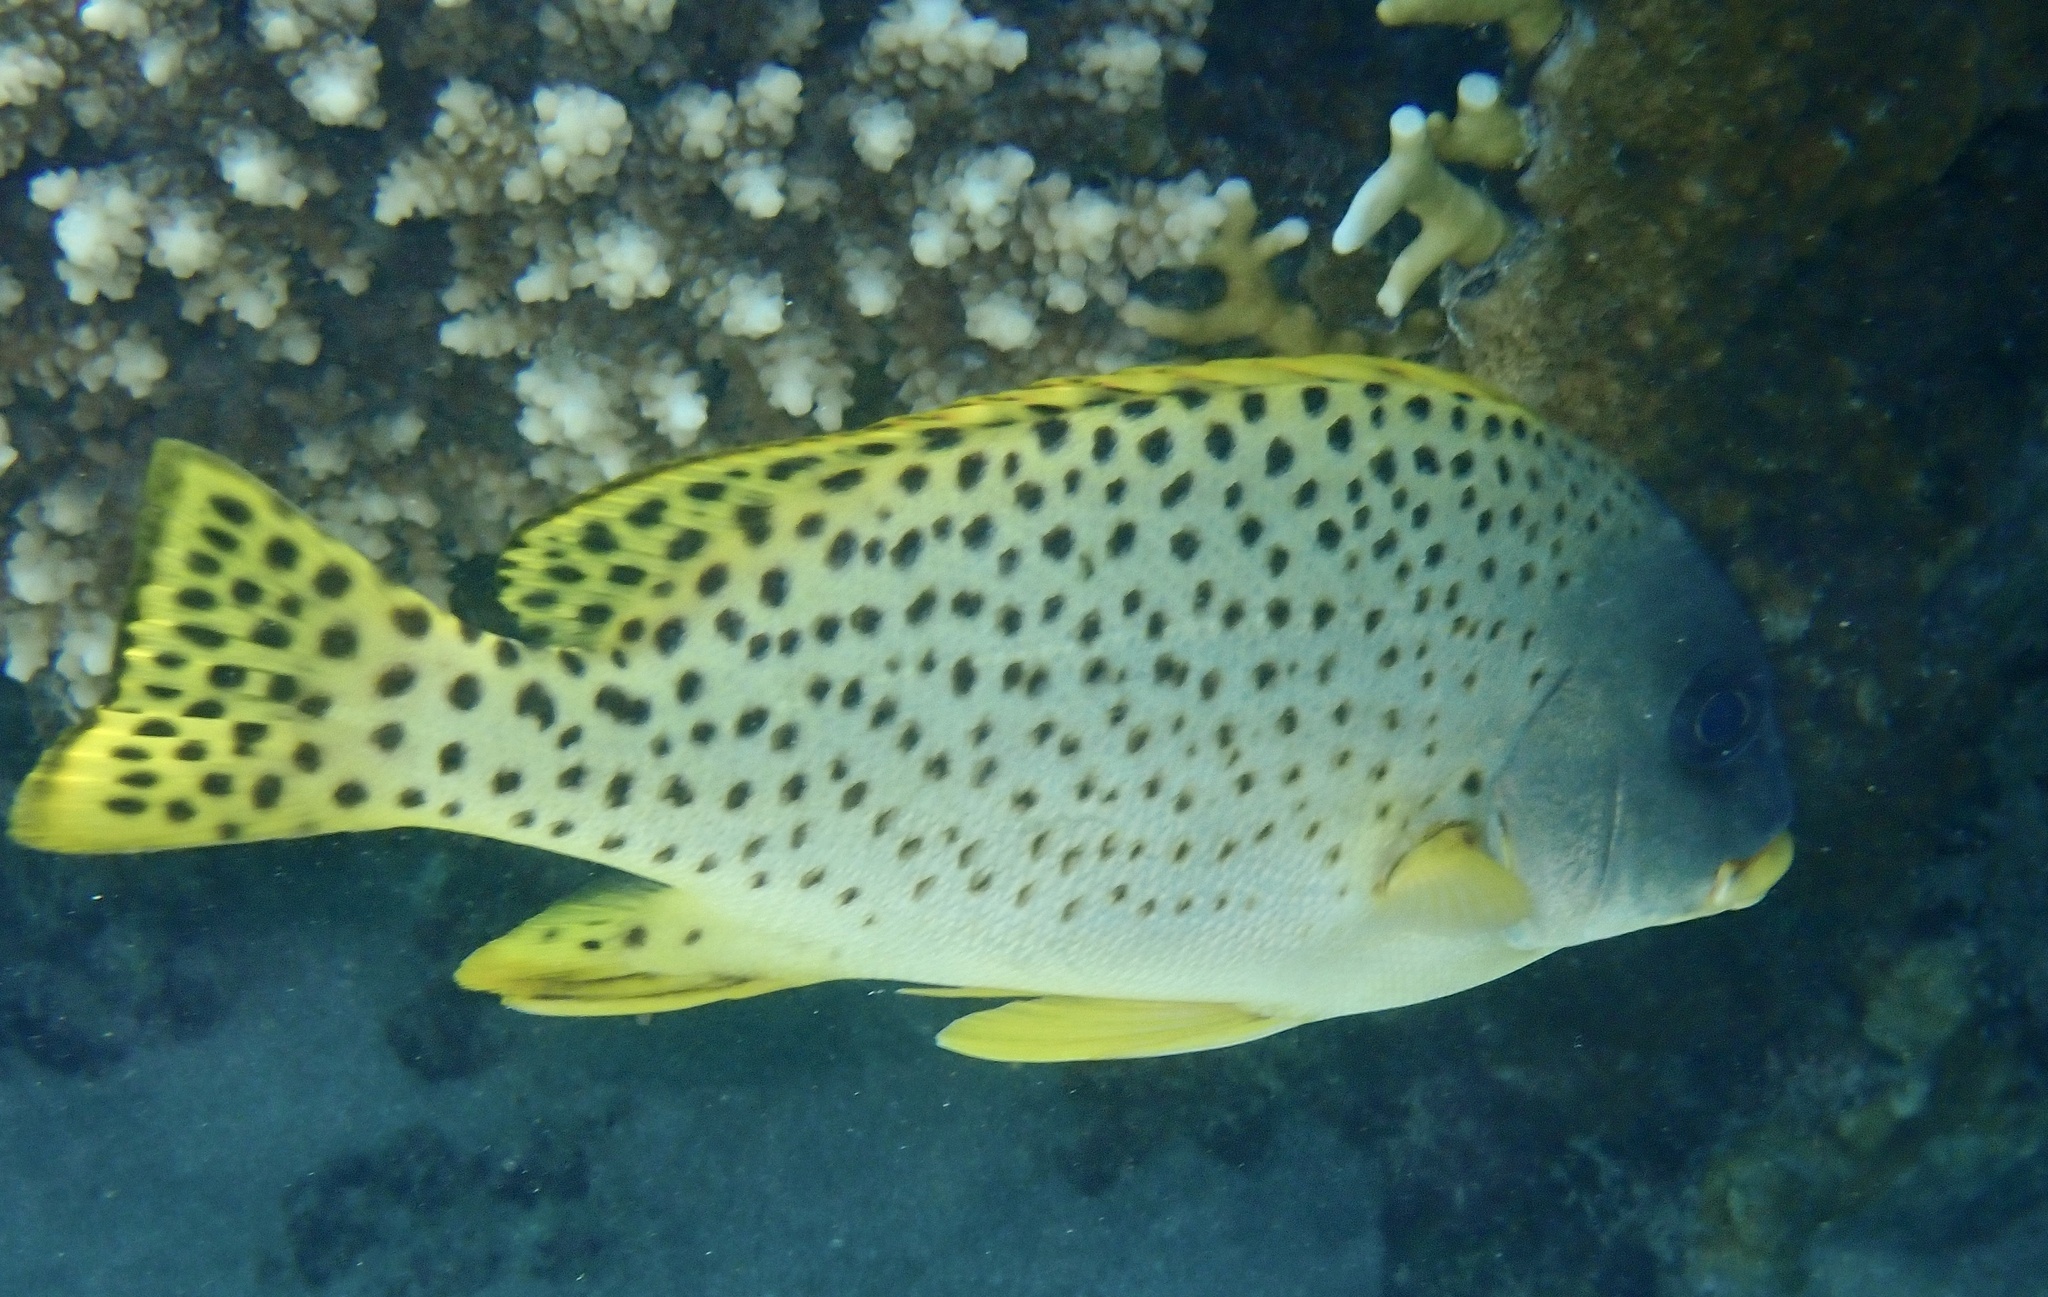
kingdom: Animalia
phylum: Chordata
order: Perciformes
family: Haemulidae
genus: Plectorhinchus
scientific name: Plectorhinchus gaterinus
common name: Blackspotted rubberlip
